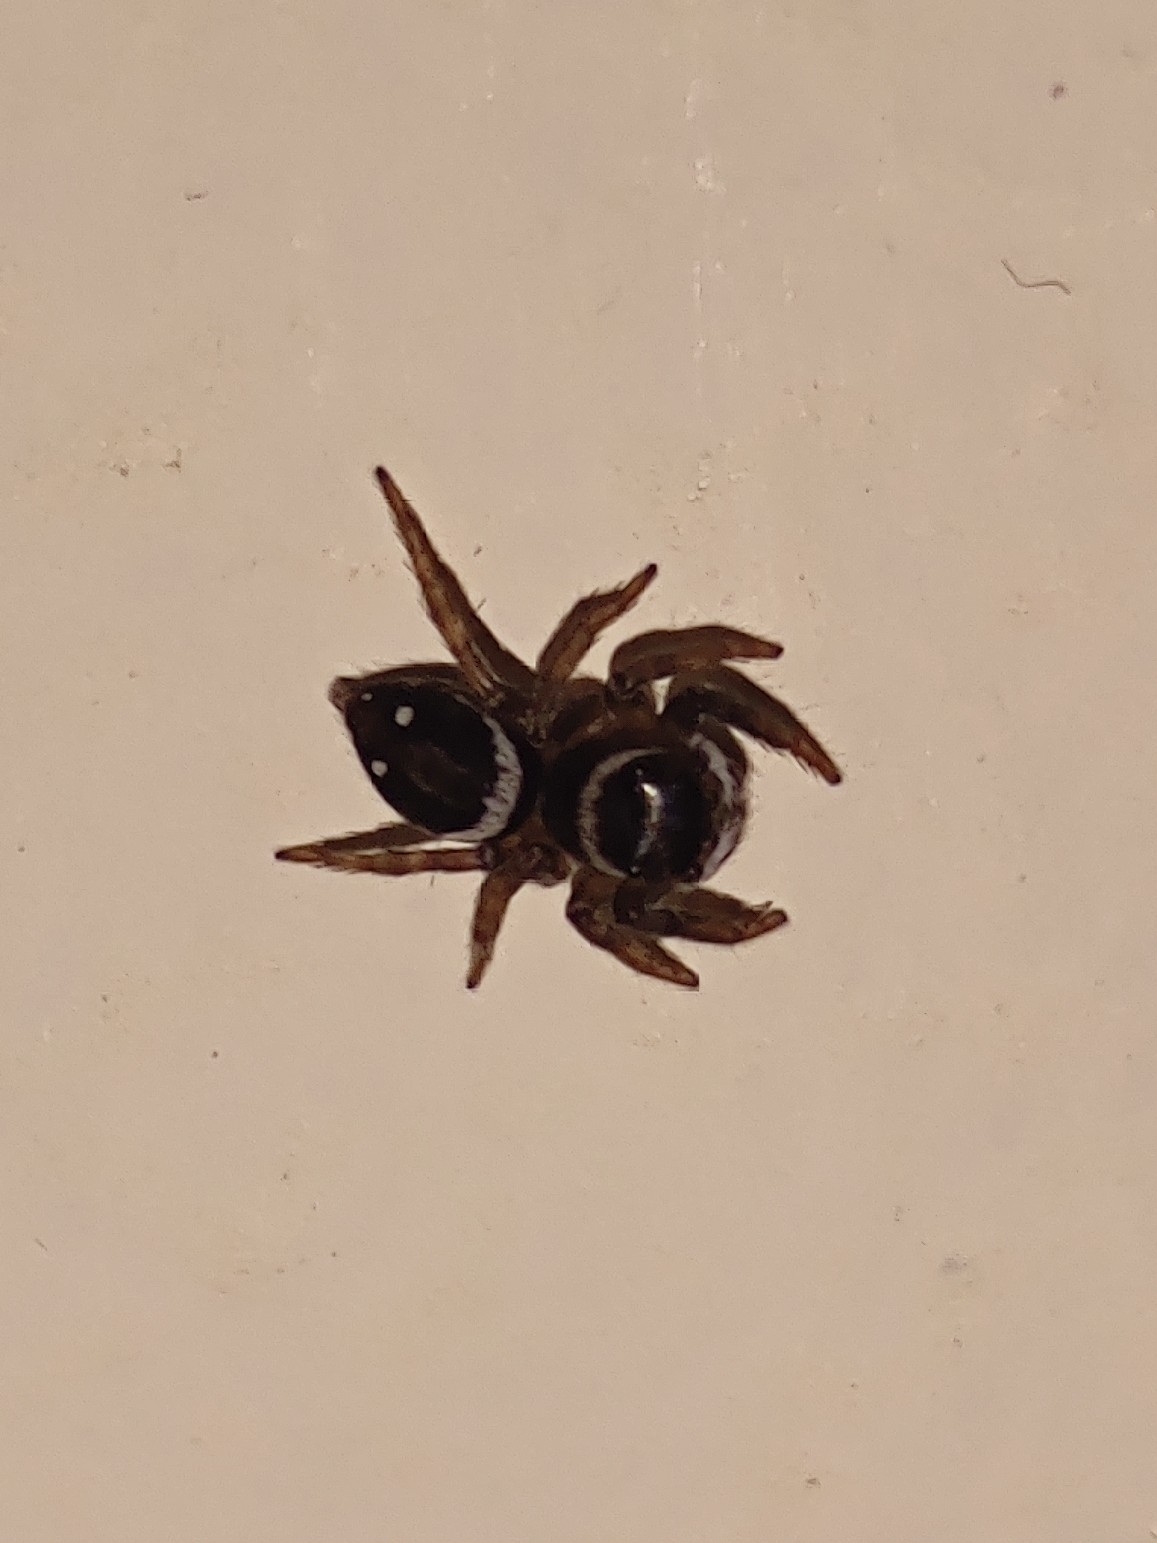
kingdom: Animalia
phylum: Arthropoda
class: Arachnida
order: Araneae
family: Salticidae
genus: Hasarius
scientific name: Hasarius adansoni
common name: Jumping spider
